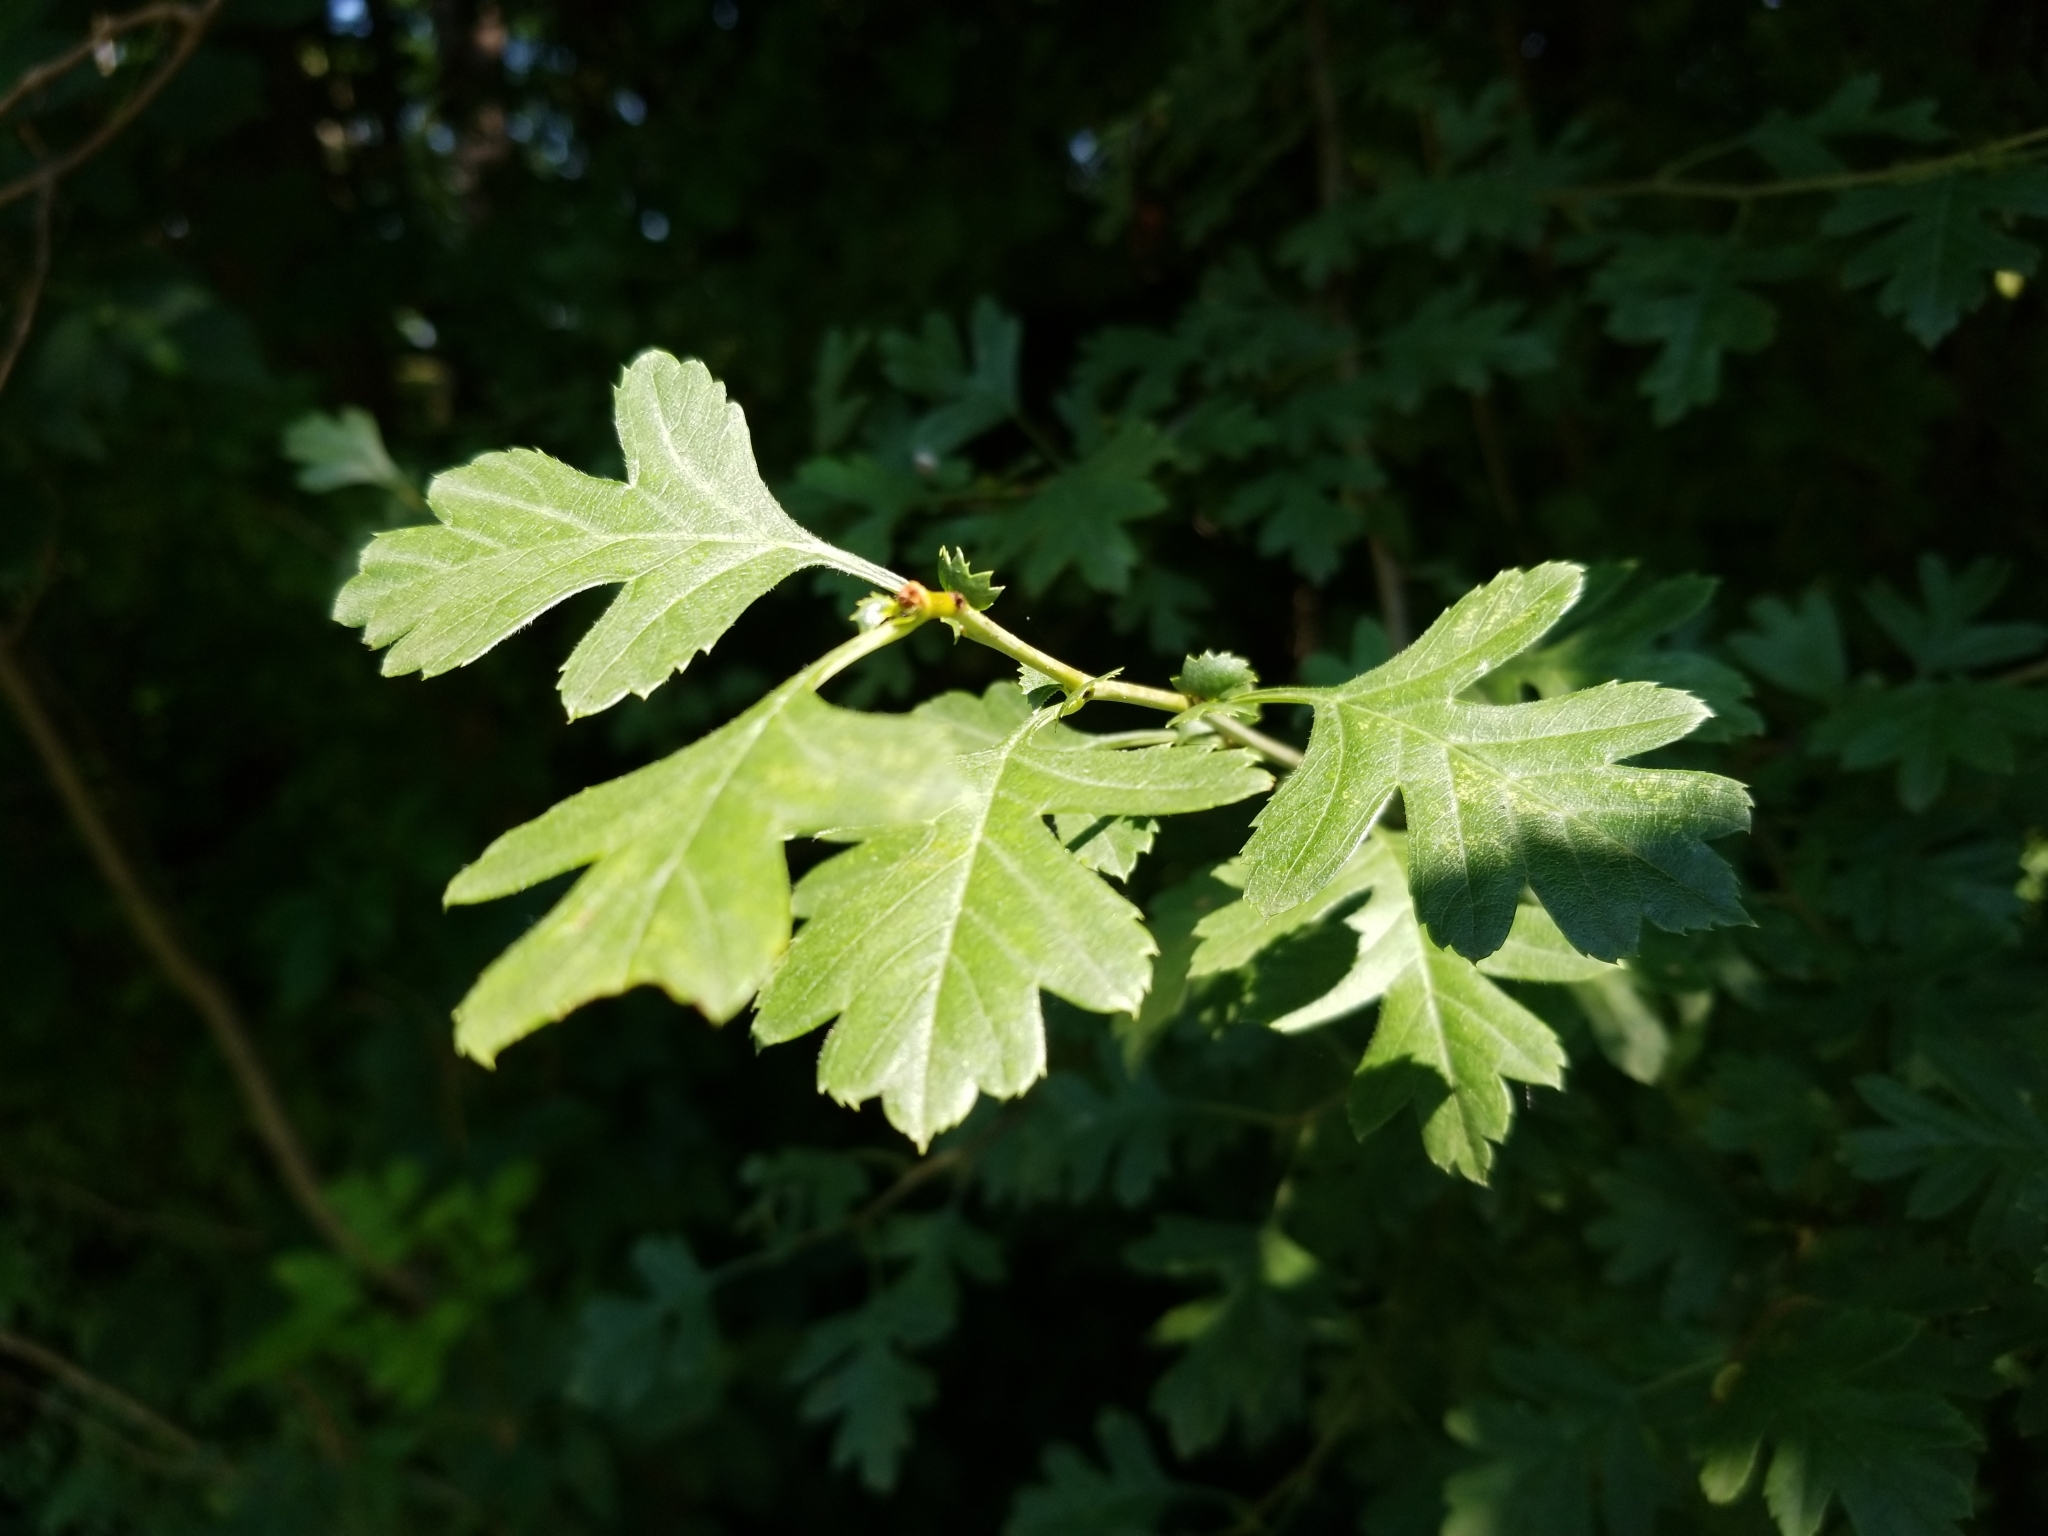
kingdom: Plantae
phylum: Tracheophyta
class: Magnoliopsida
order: Rosales
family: Rosaceae
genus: Crataegus
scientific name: Crataegus monogyna
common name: Hawthorn
